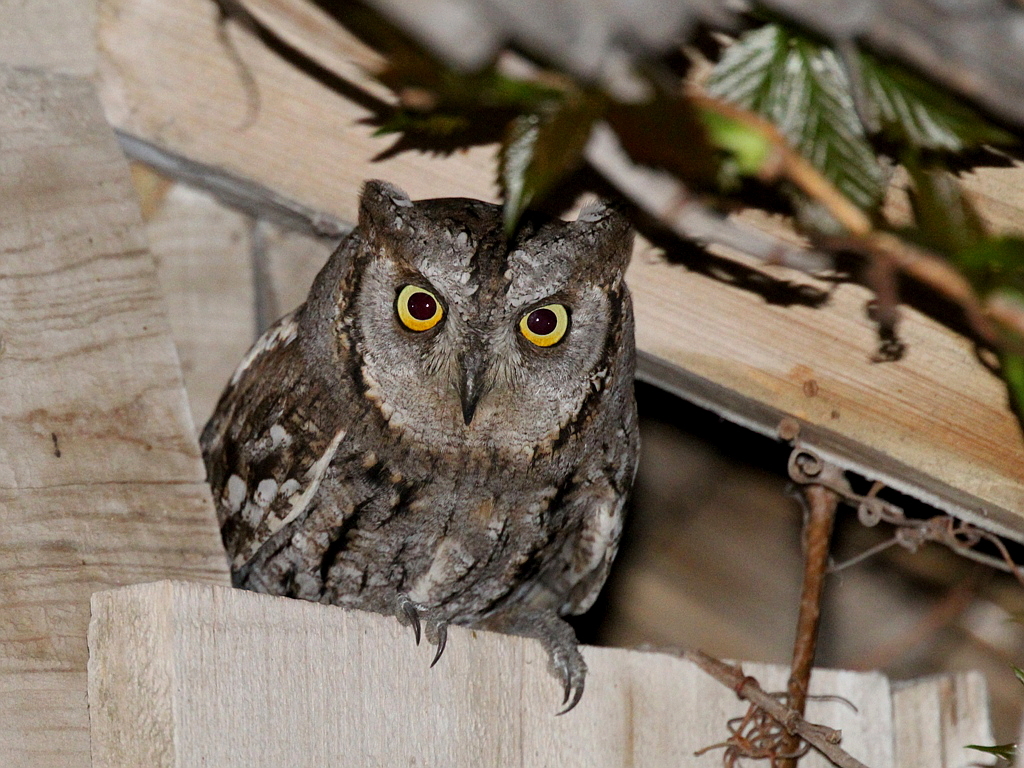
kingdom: Animalia
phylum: Chordata
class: Aves
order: Strigiformes
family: Strigidae
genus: Otus
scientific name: Otus scops
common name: Eurasian scops owl
